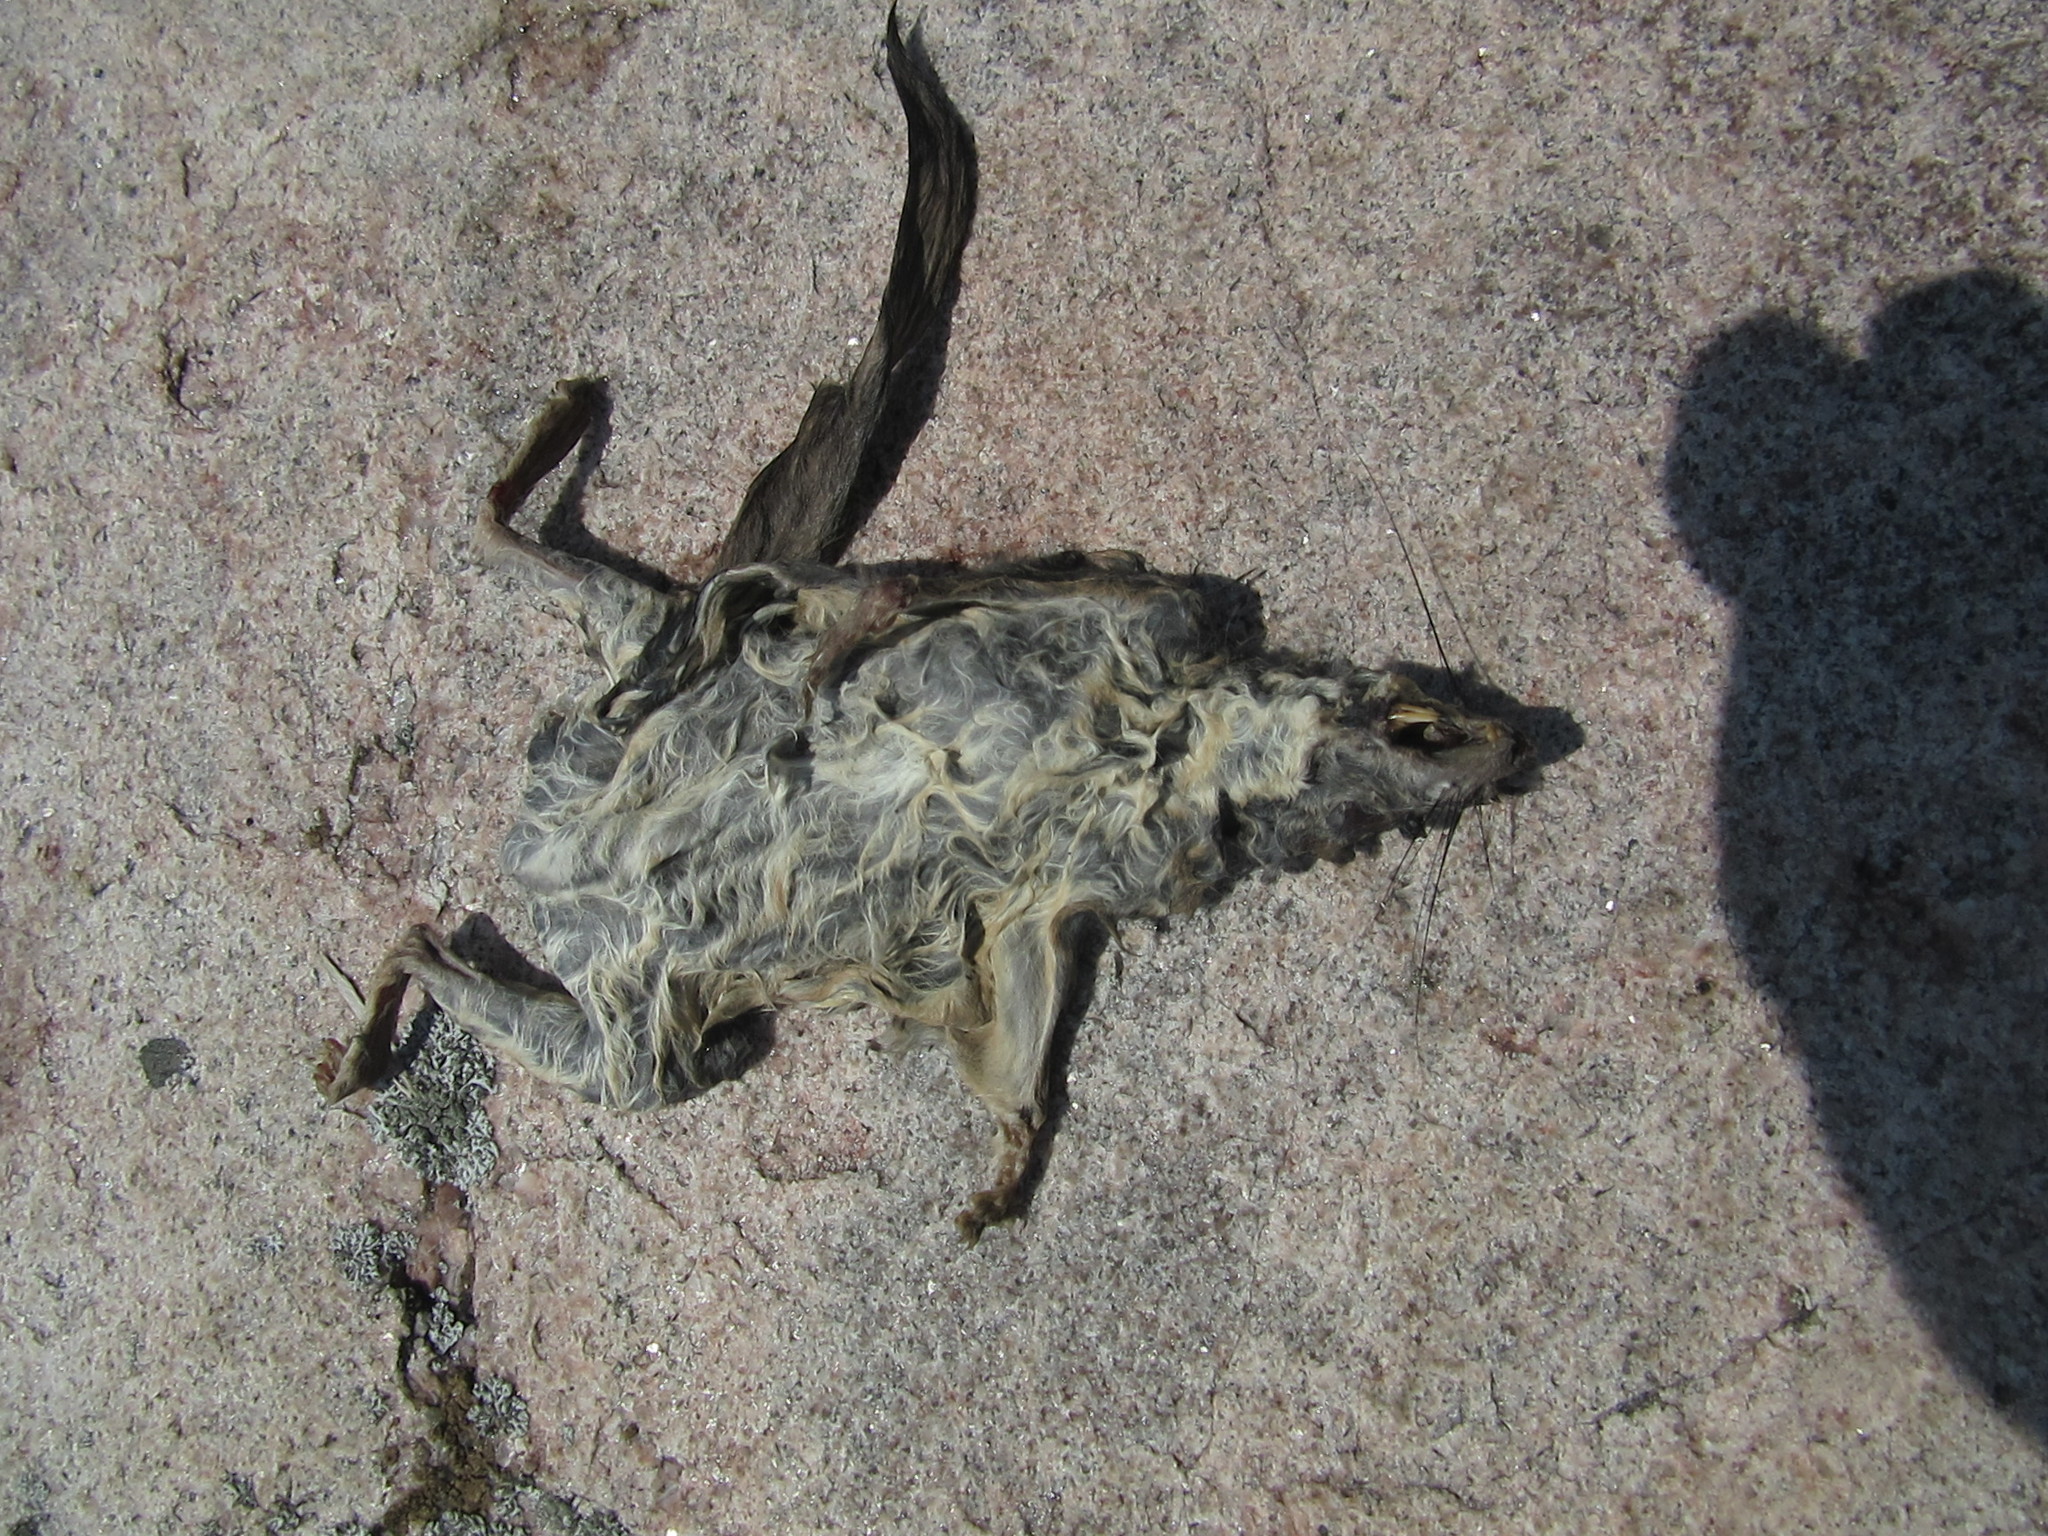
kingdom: Animalia
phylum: Chordata
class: Mammalia
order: Rodentia
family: Sciuridae
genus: Glaucomys
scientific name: Glaucomys sabrinus
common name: Northern flying squirrel
